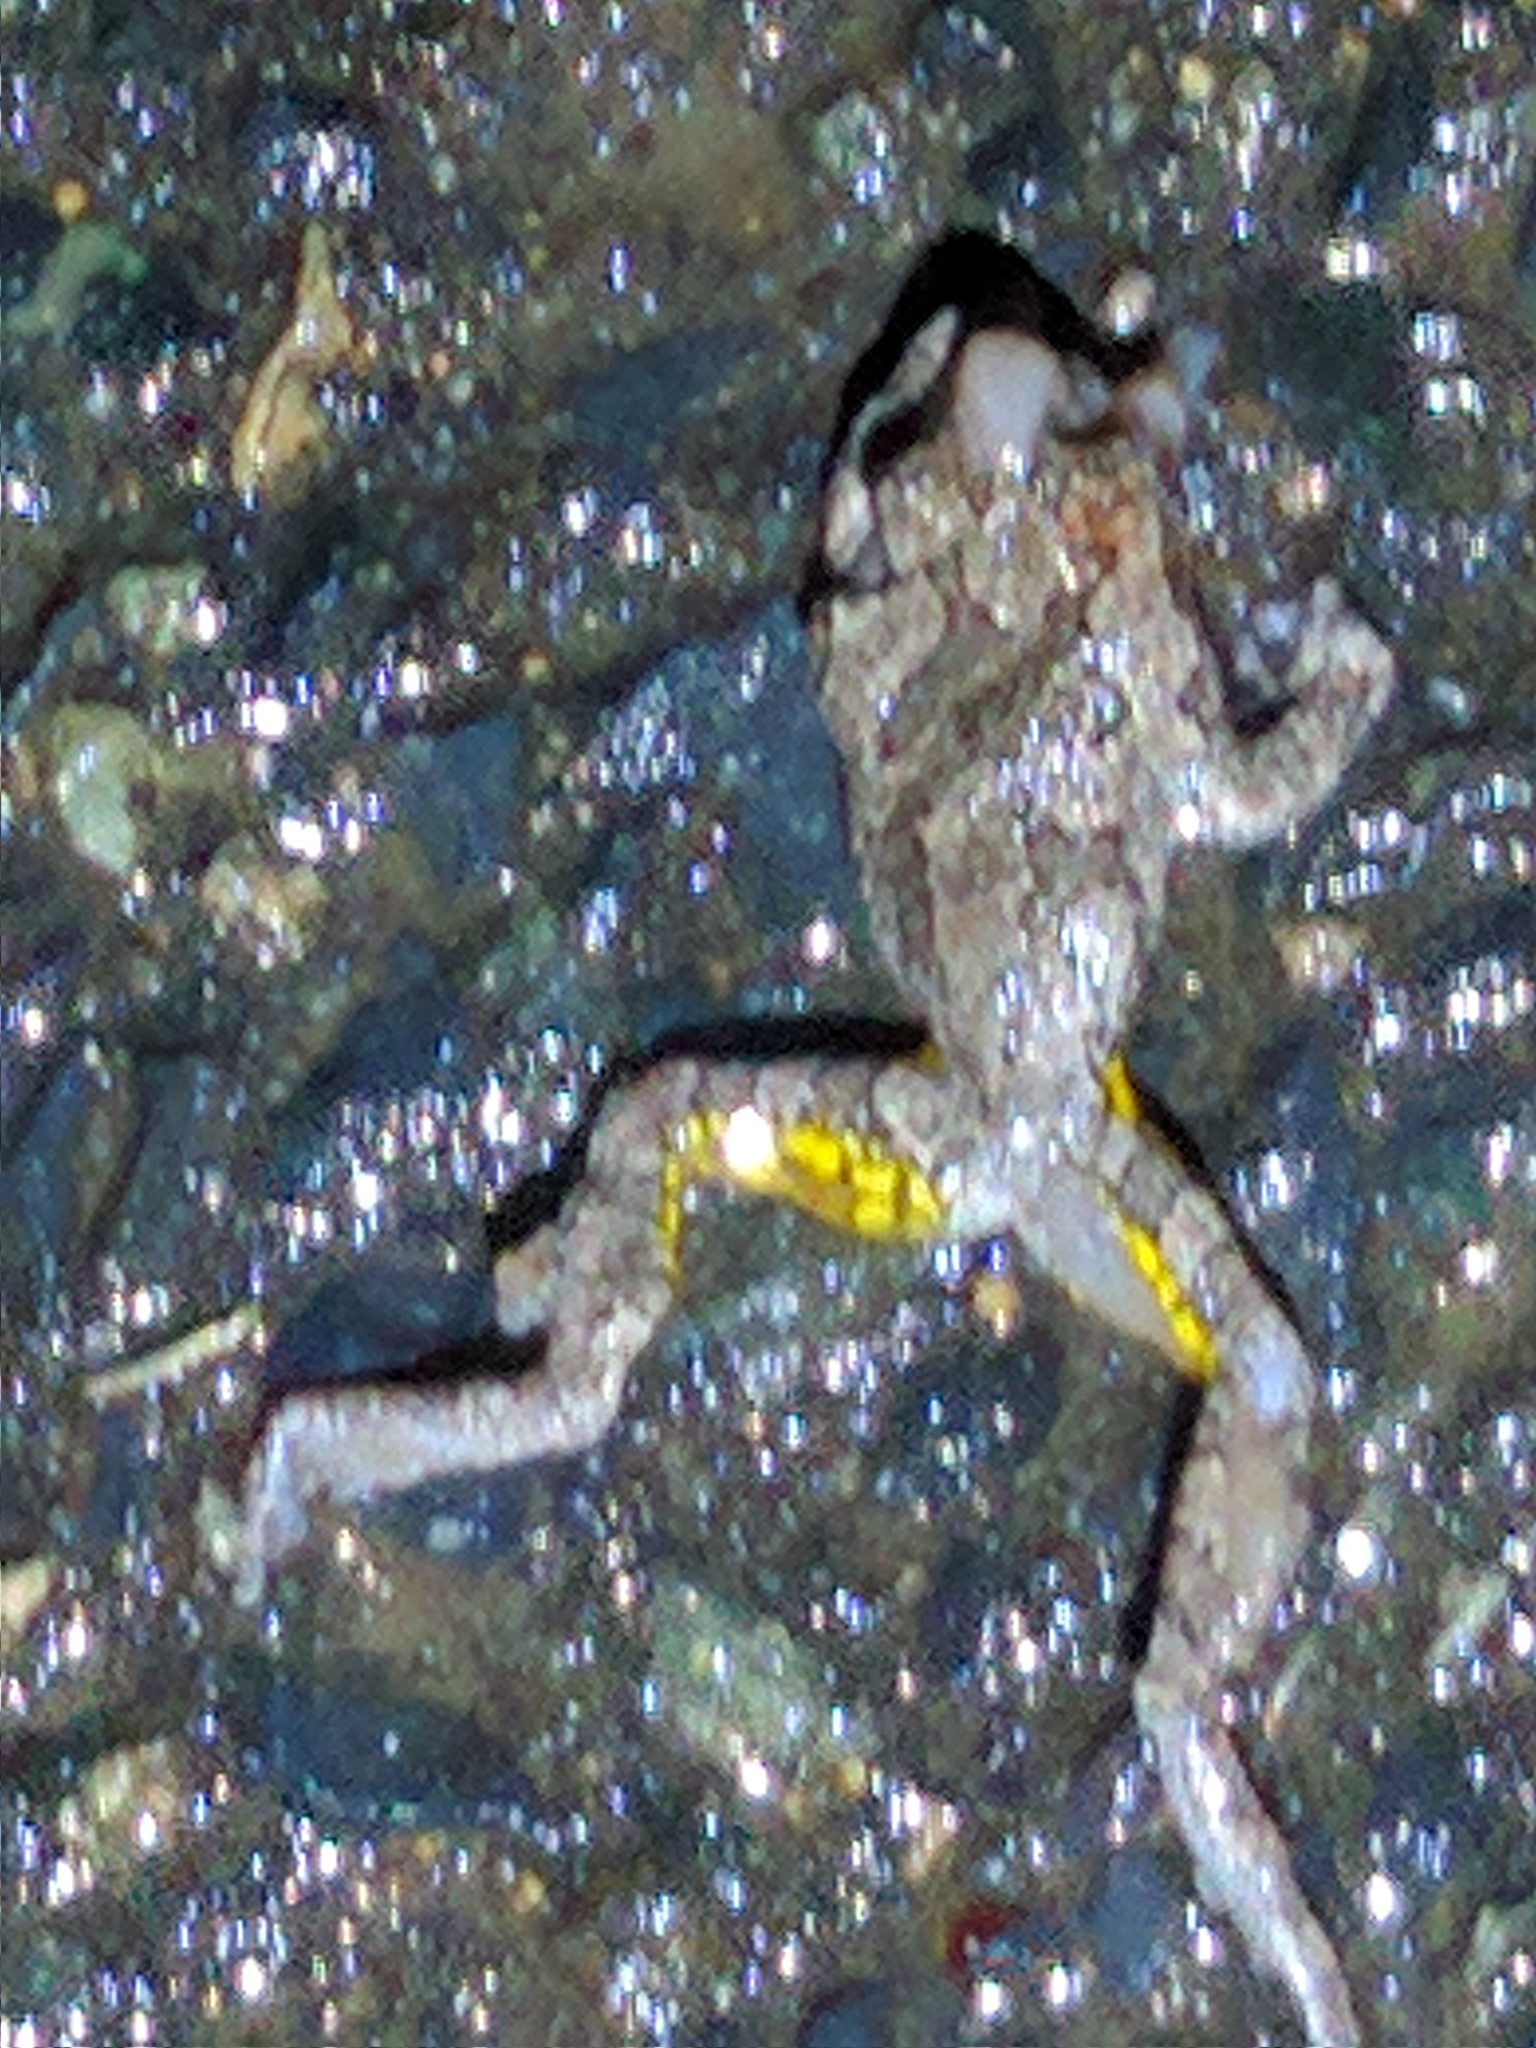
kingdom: Animalia
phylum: Chordata
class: Amphibia
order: Anura
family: Hylidae
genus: Dryophytes
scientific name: Dryophytes versicolor
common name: Gray treefrog
